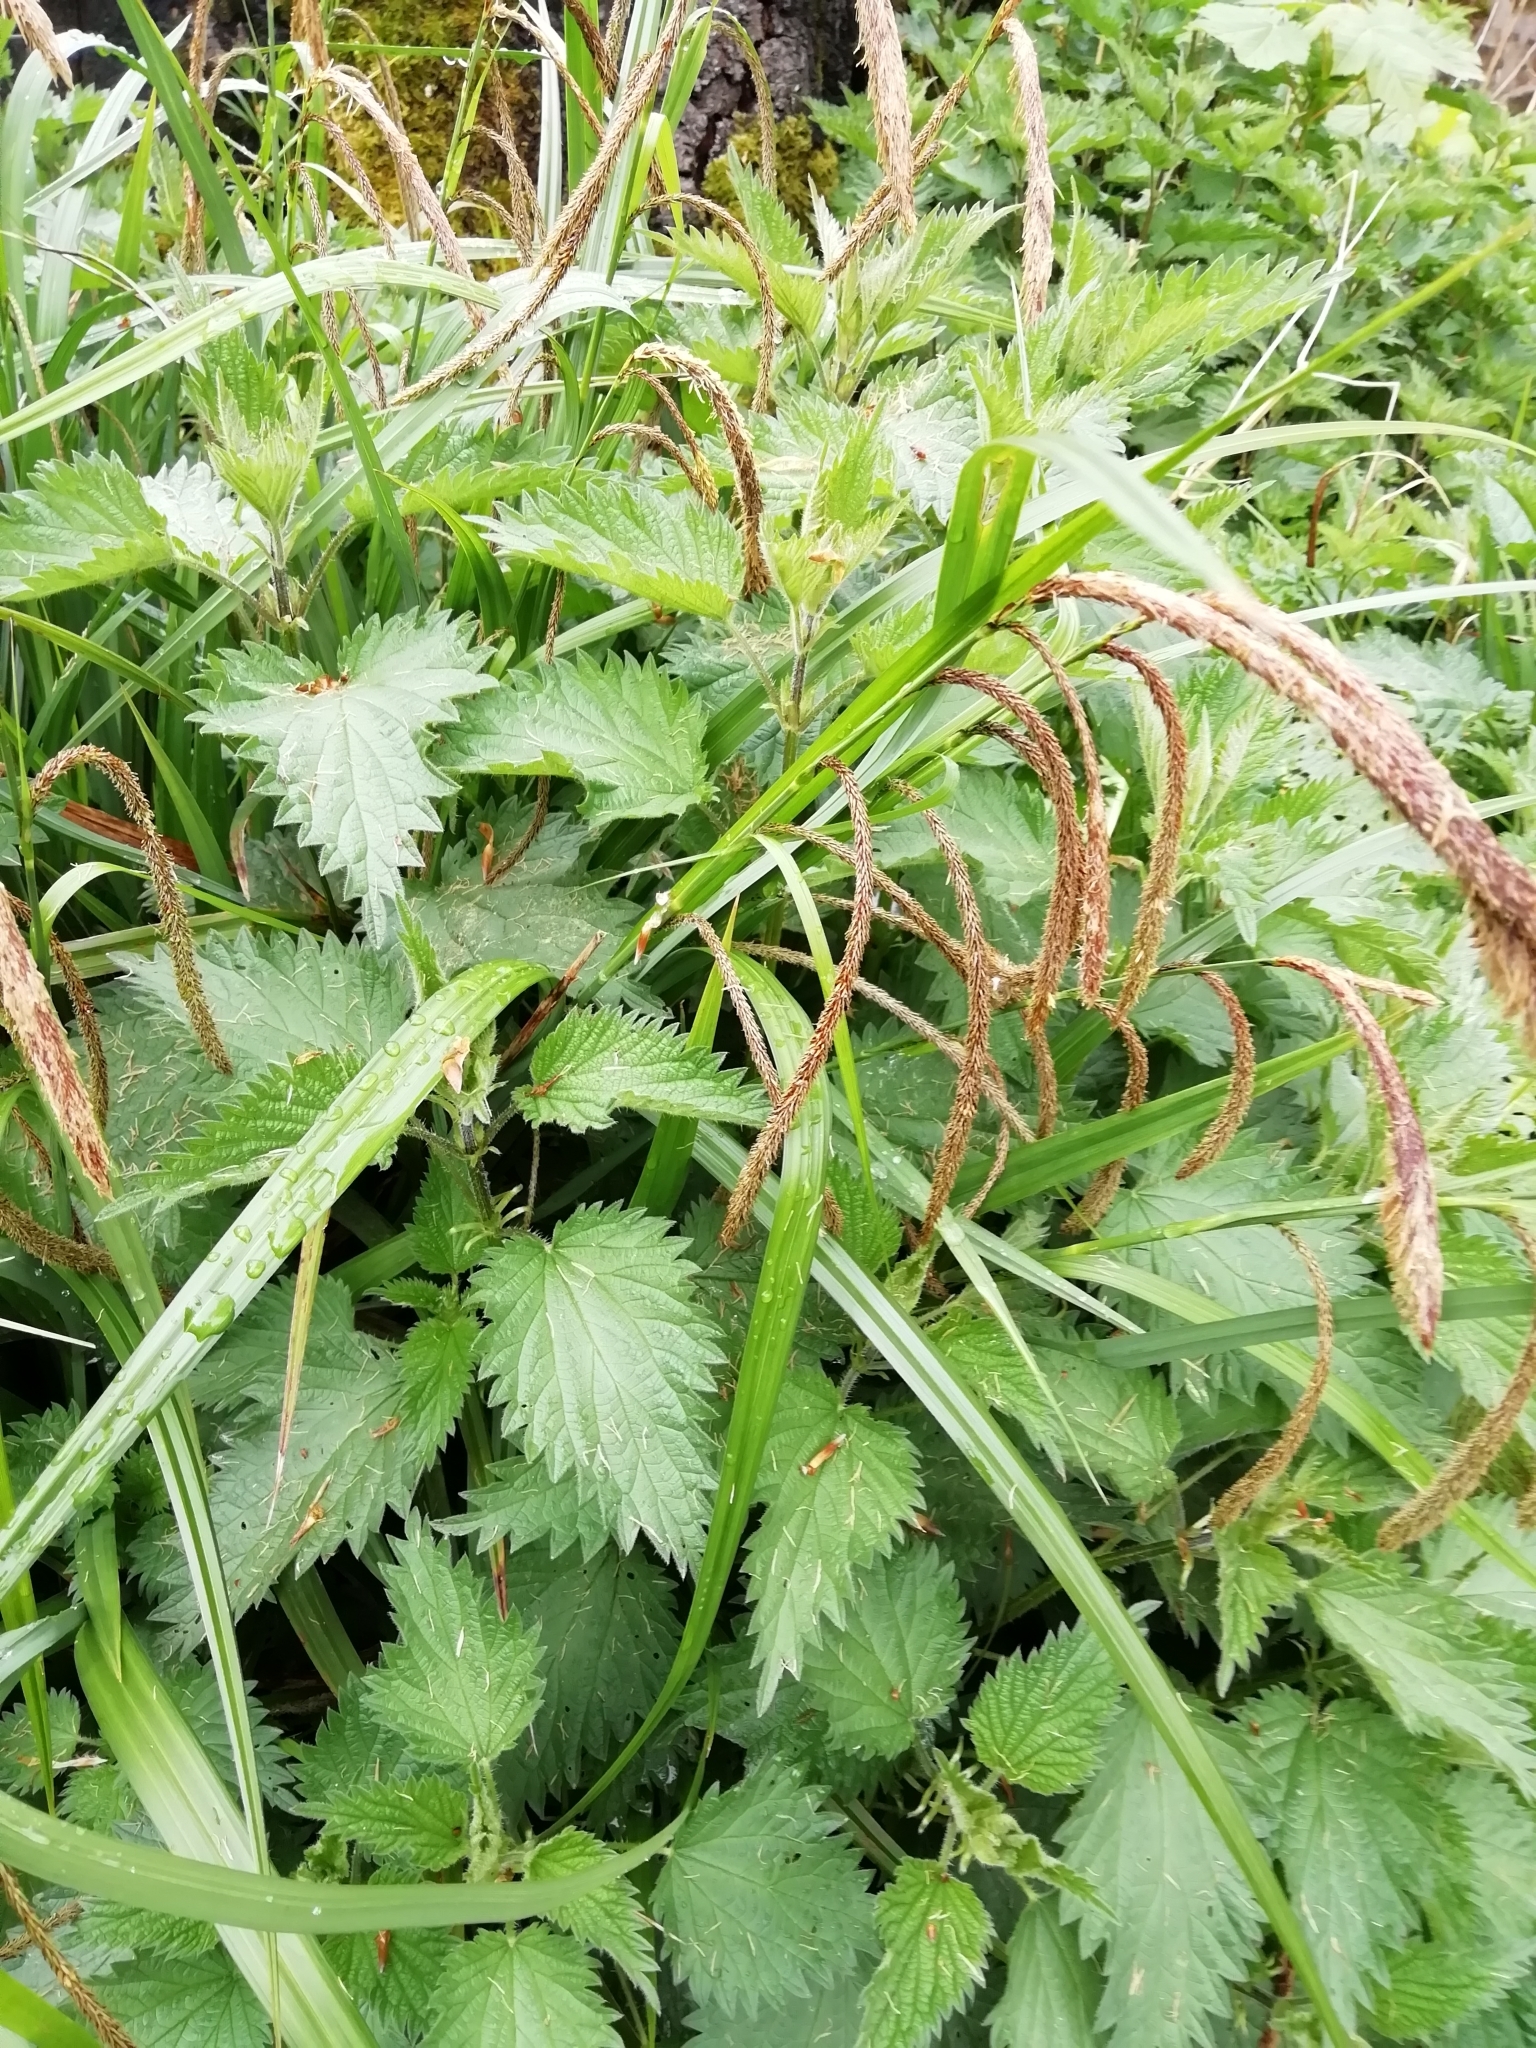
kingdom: Plantae
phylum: Tracheophyta
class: Liliopsida
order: Poales
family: Cyperaceae
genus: Carex
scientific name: Carex pendula
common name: Pendulous sedge
